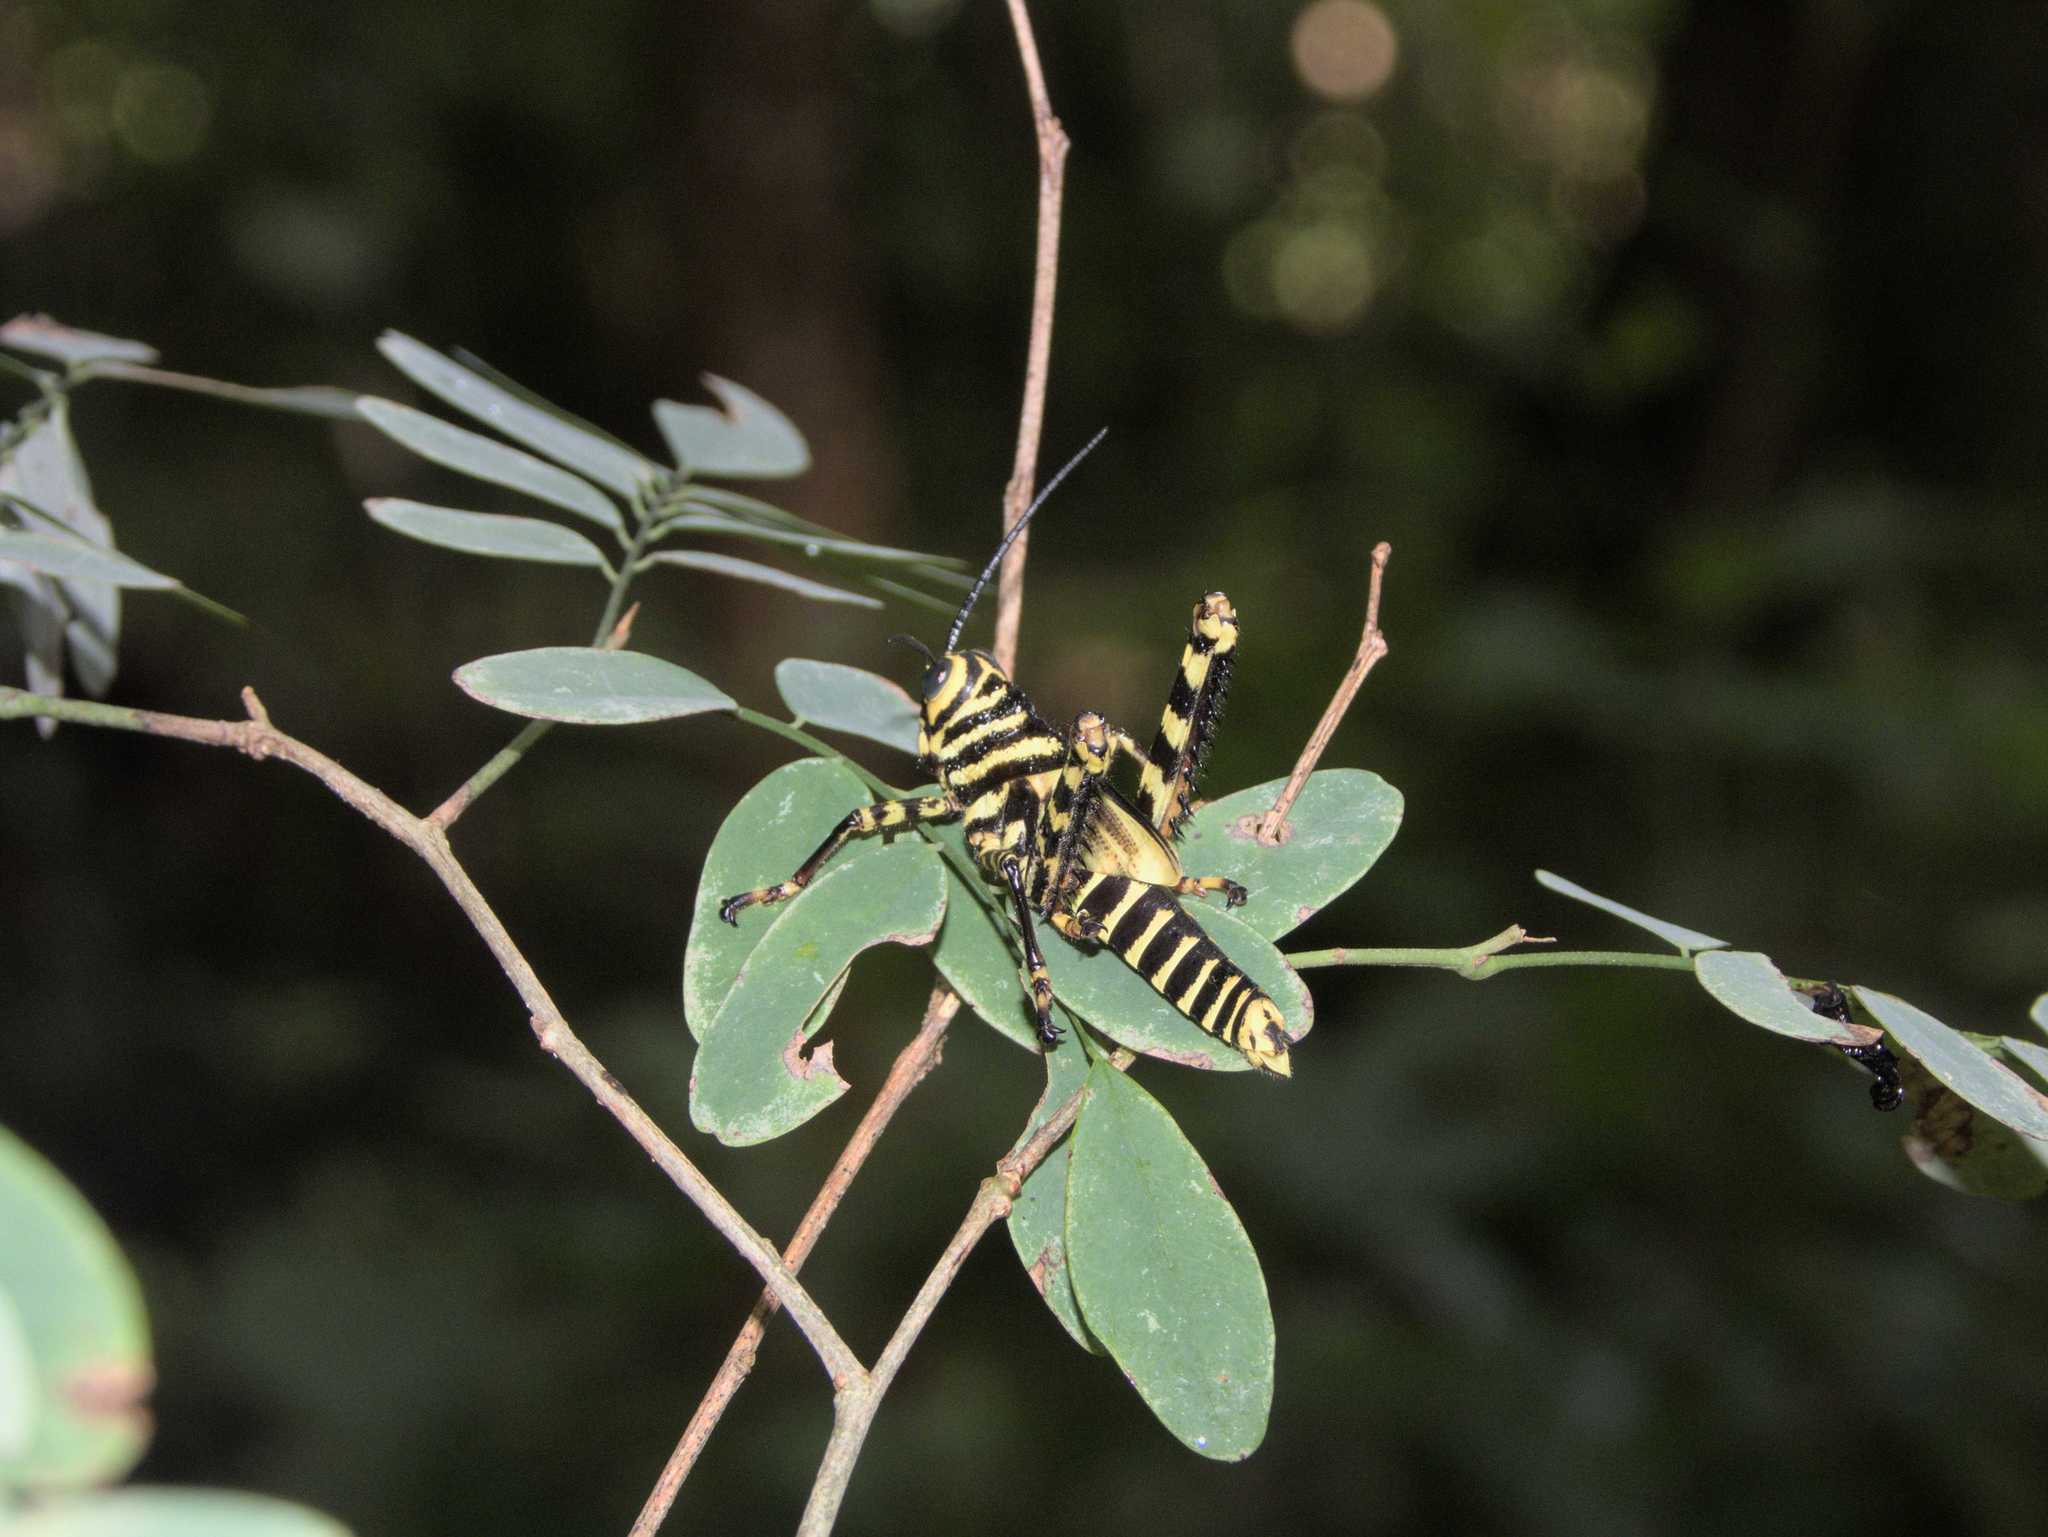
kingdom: Animalia
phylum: Arthropoda
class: Insecta
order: Orthoptera
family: Romaleidae
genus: Tropidacris
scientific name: Tropidacris cristata
